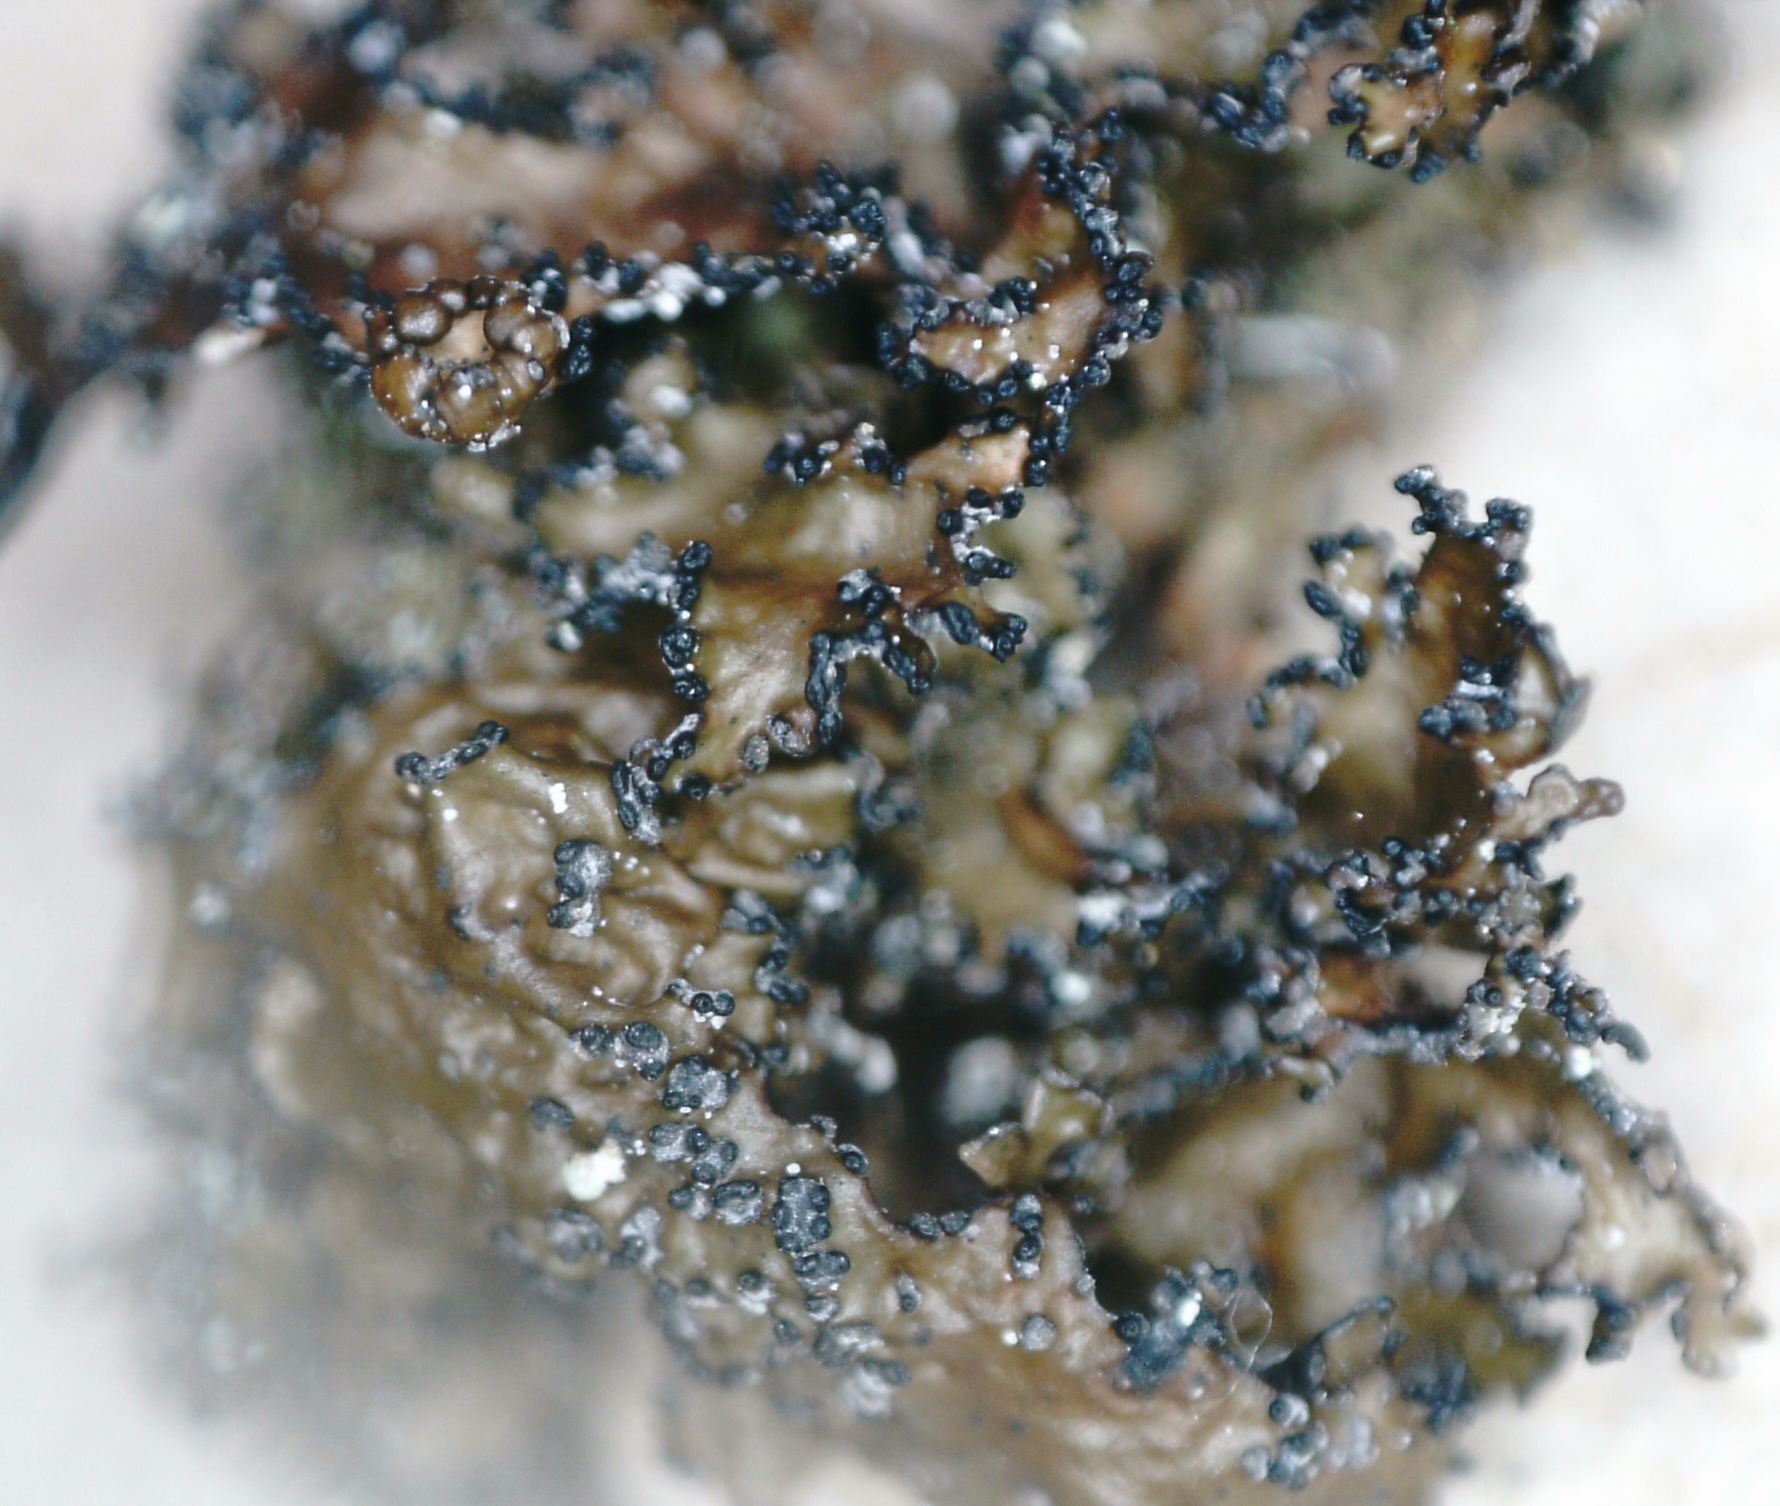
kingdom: Fungi
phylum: Ascomycota
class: Lecanoromycetes
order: Lecanorales
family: Parmeliaceae
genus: Melanelia
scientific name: Melanelia commixta
